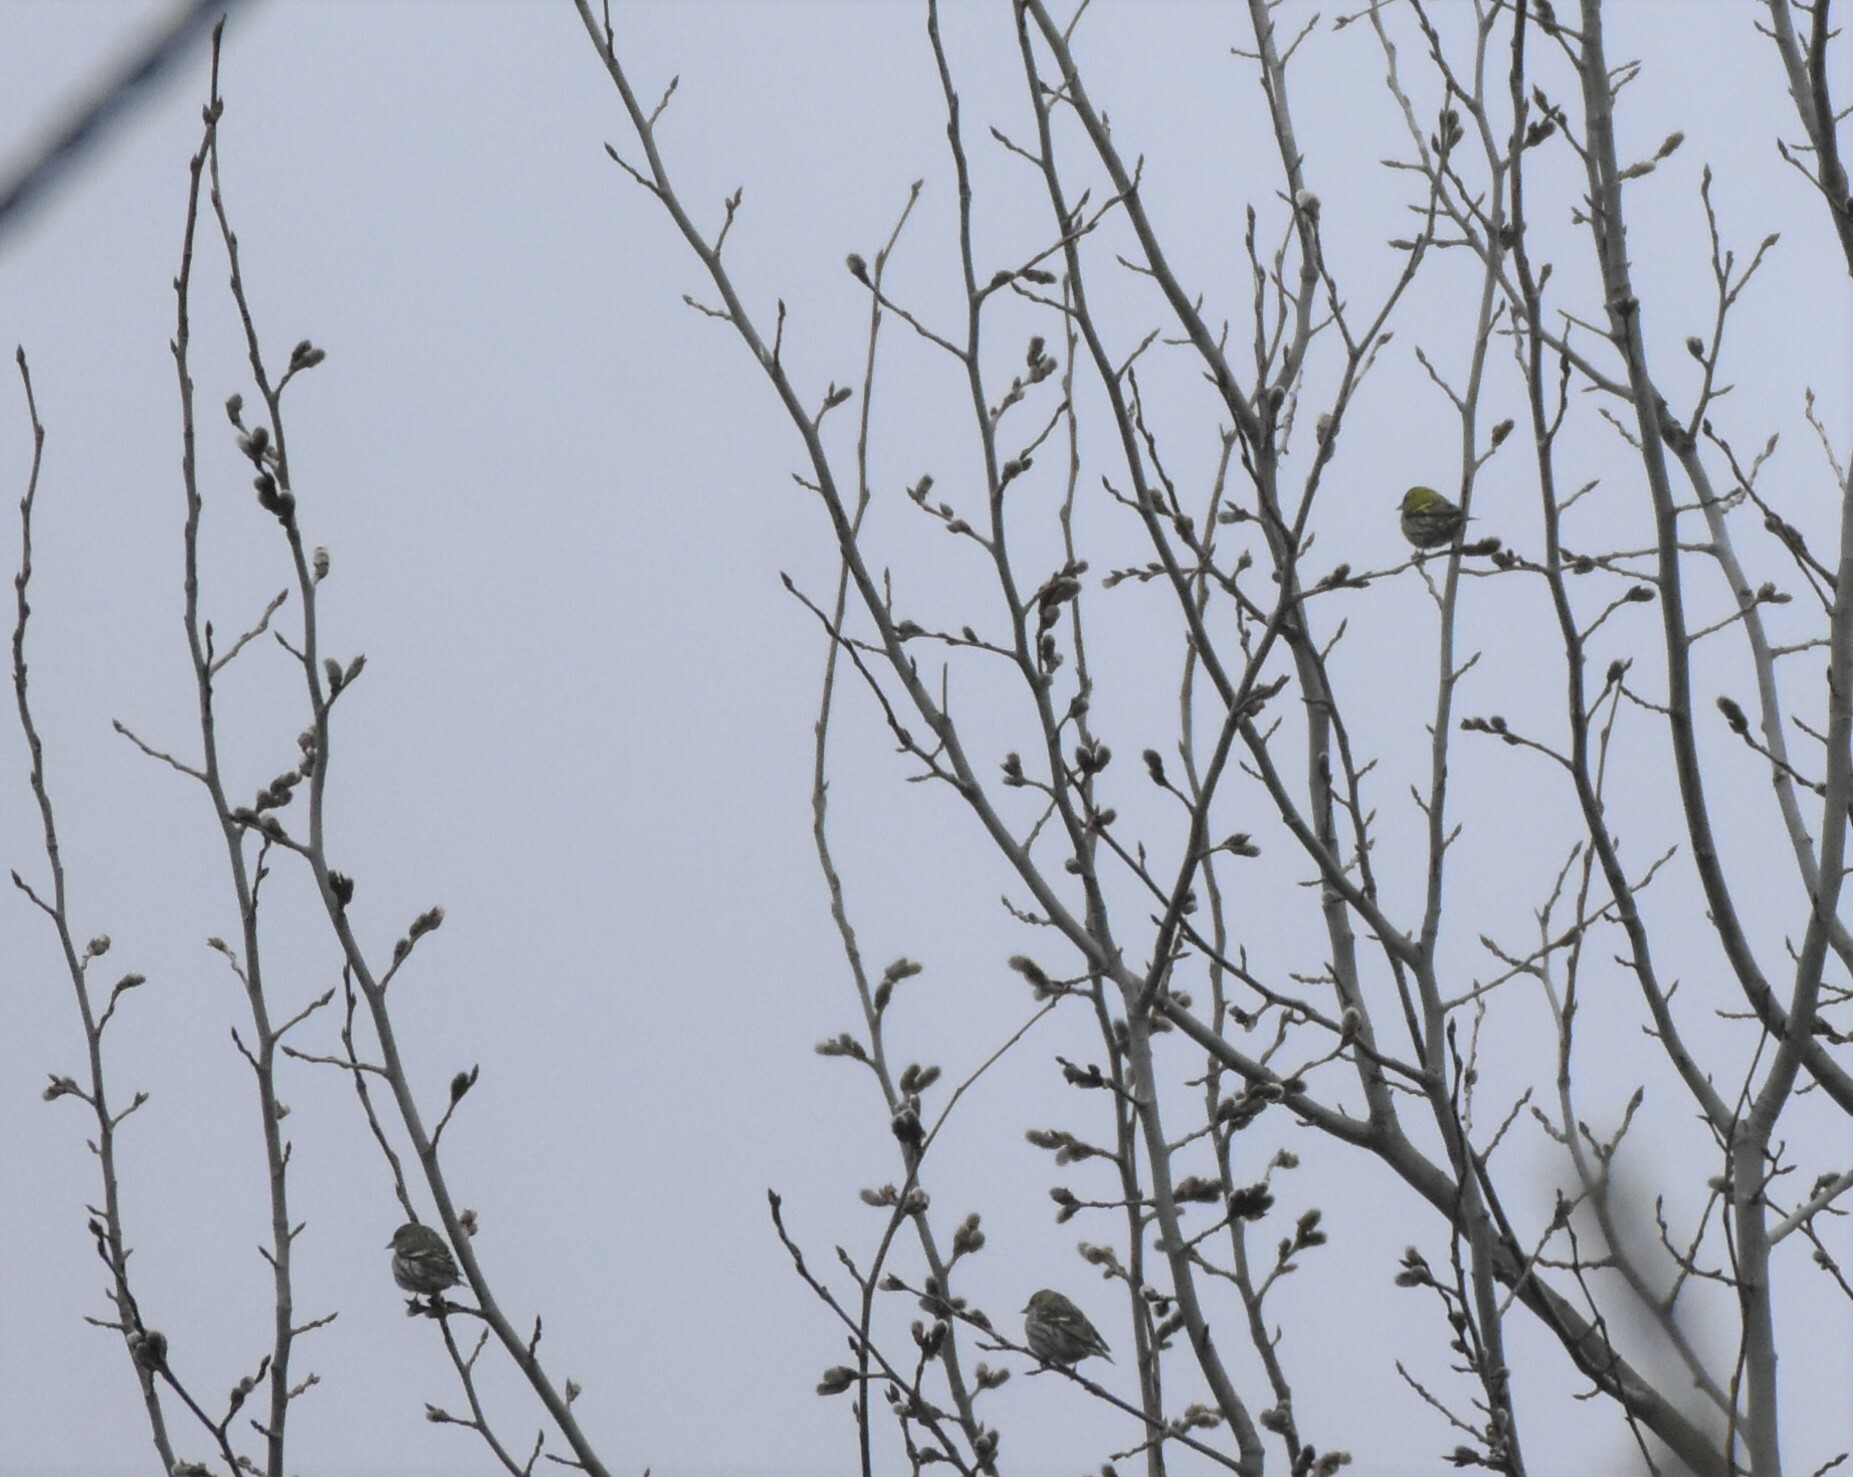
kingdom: Animalia
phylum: Chordata
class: Aves
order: Passeriformes
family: Fringillidae
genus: Spinus
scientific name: Spinus spinus
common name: Eurasian siskin
